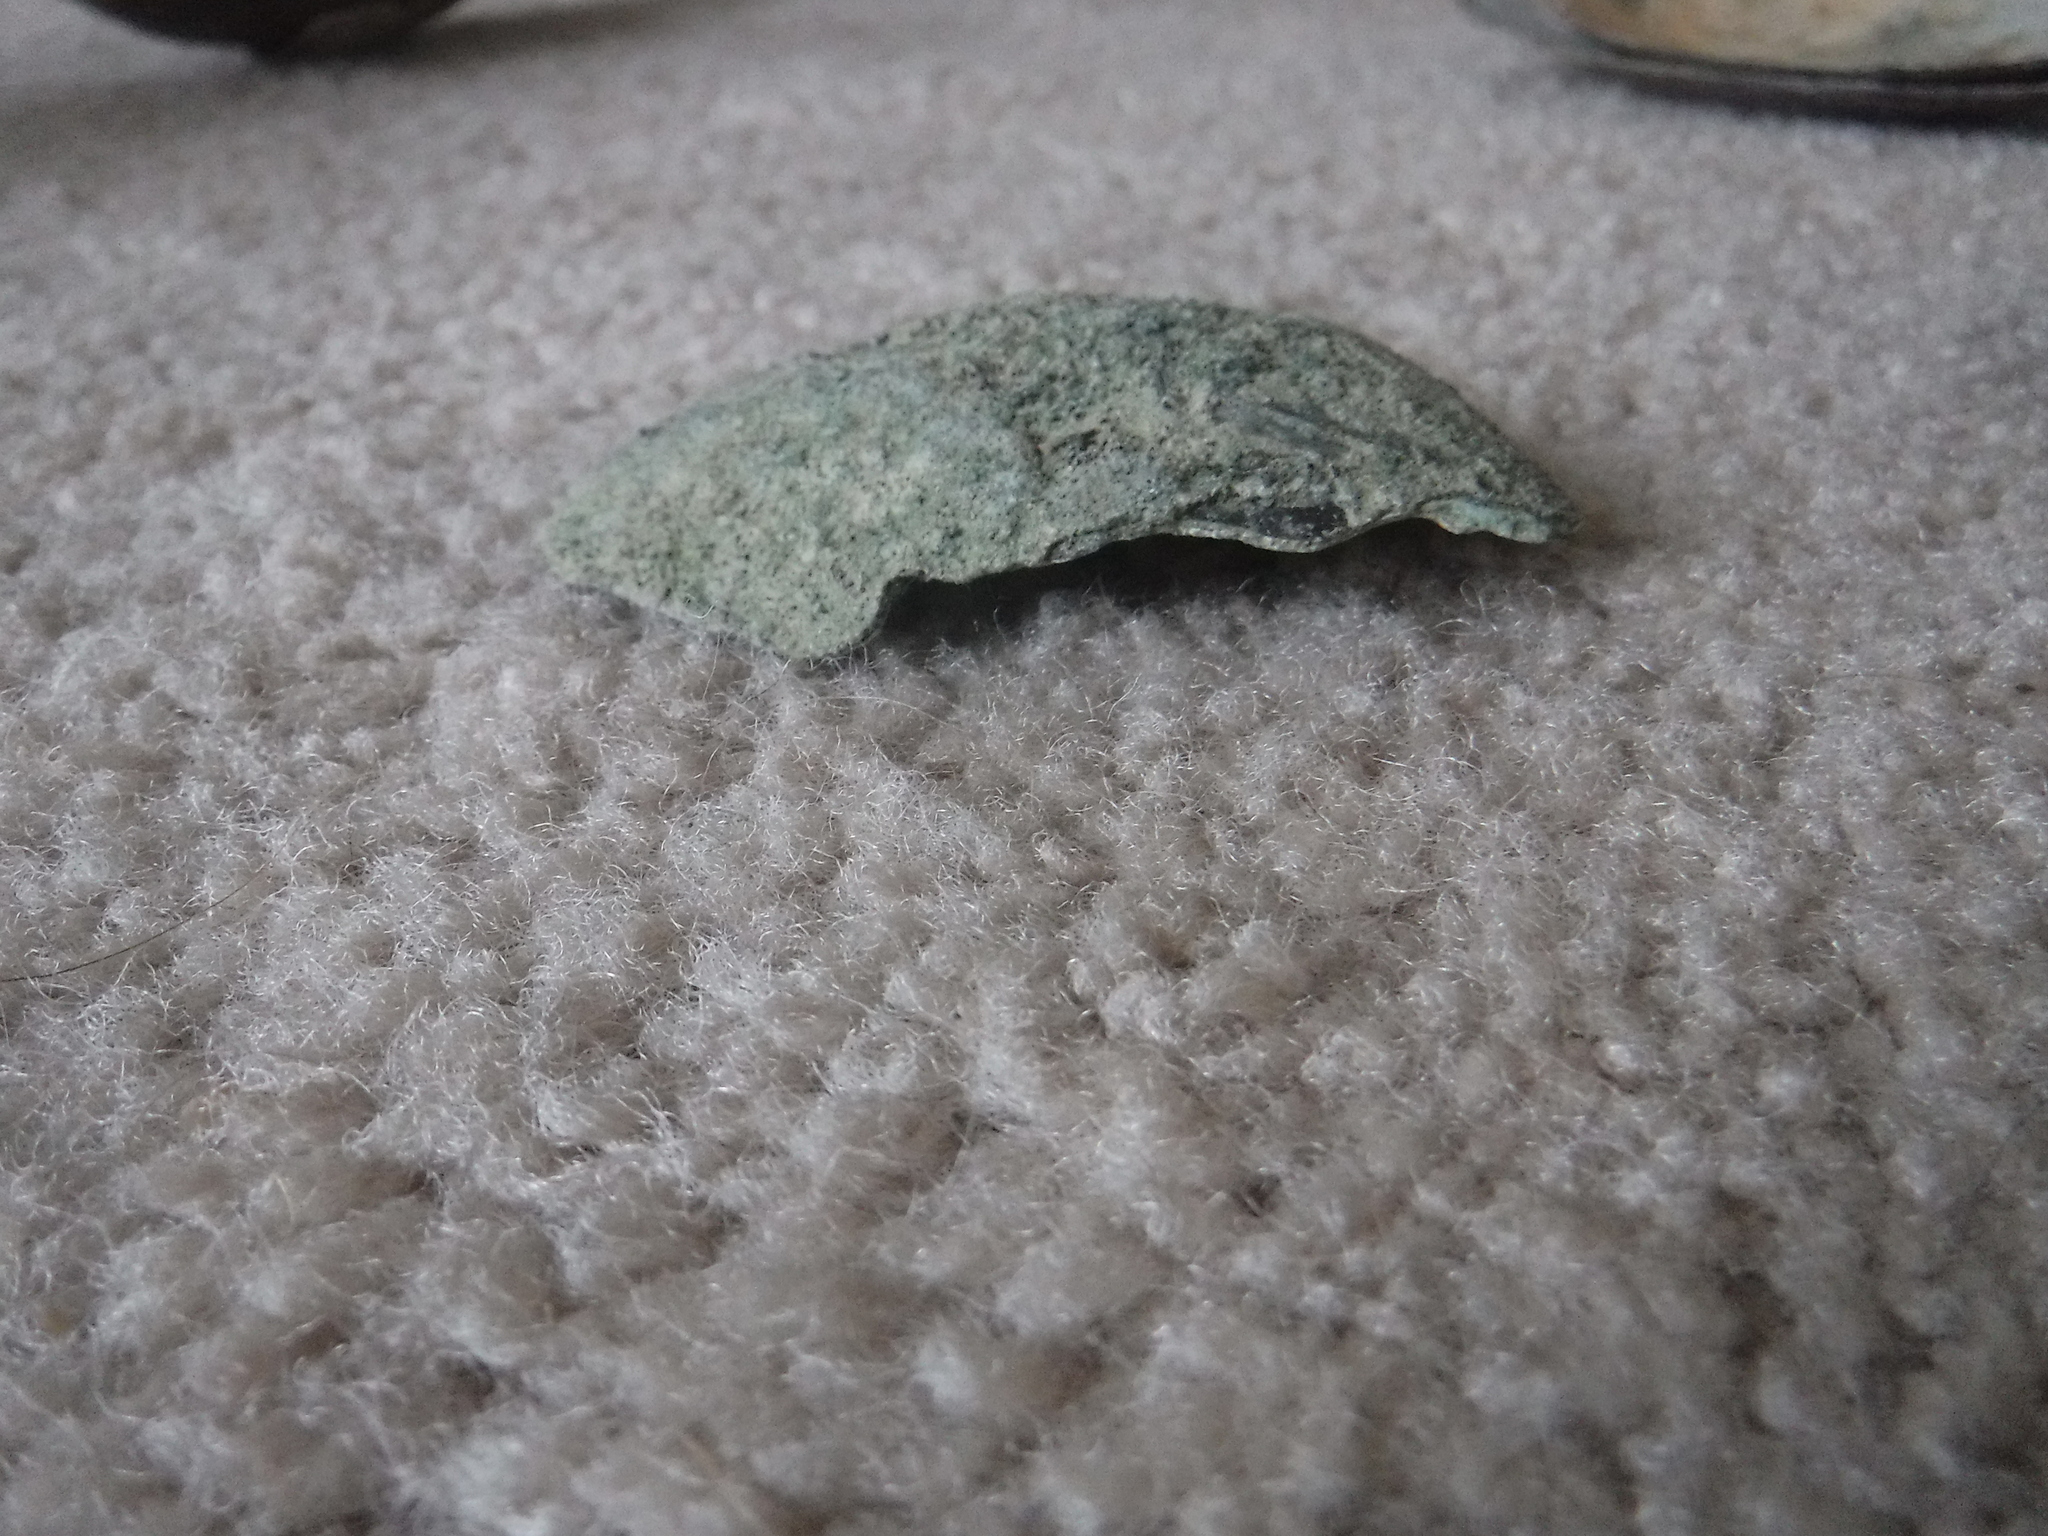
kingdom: Animalia
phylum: Mollusca
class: Bivalvia
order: Unionida
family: Unionidae
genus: Lampsilis
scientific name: Lampsilis siliquoidea
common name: Fatmucket
